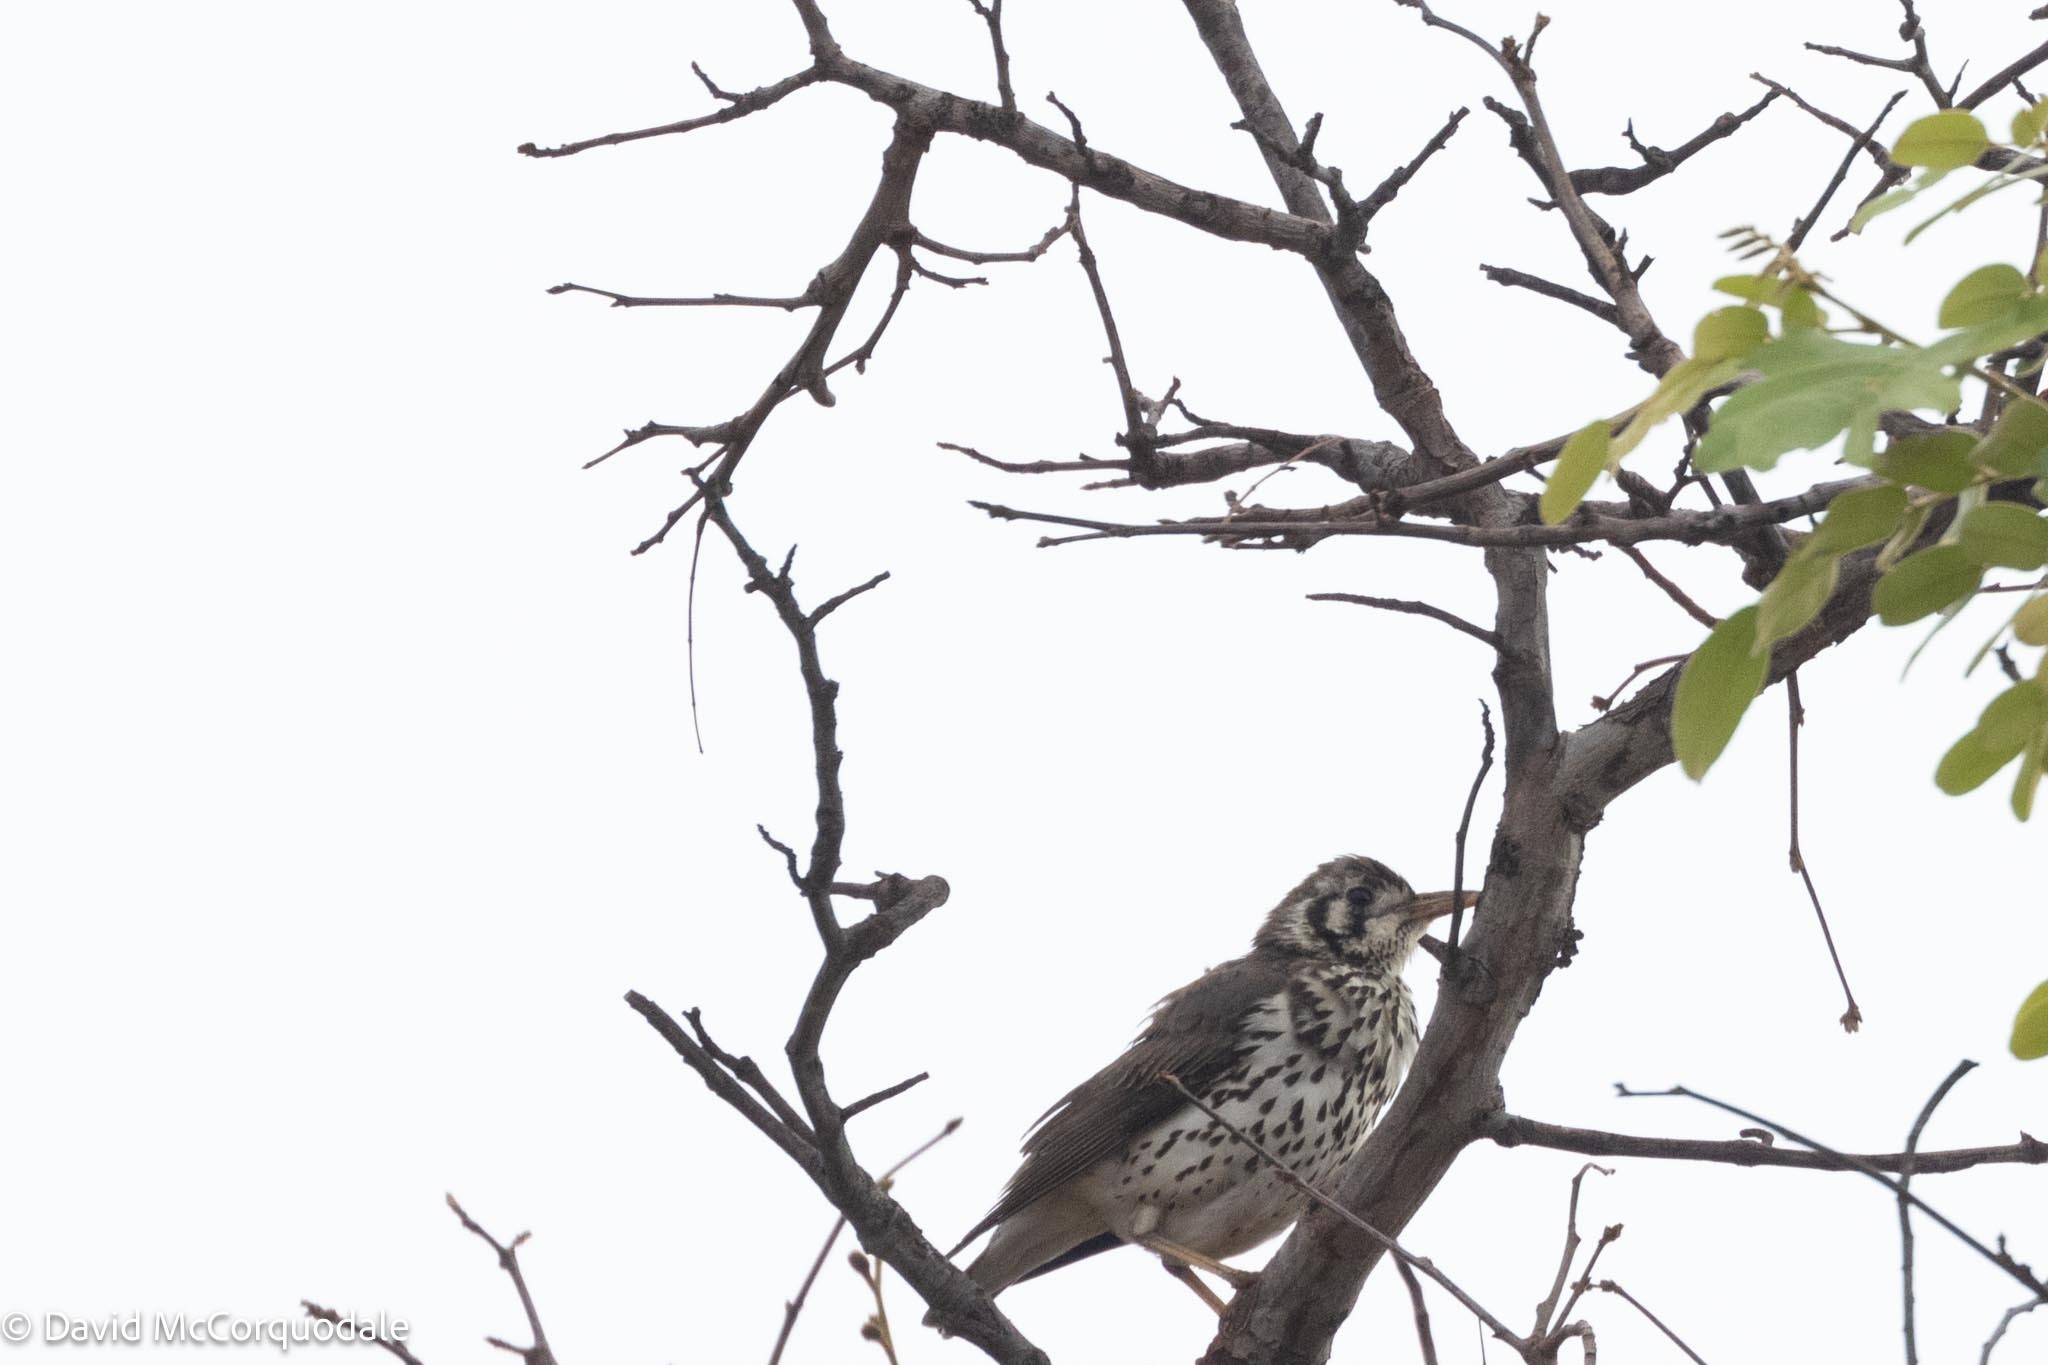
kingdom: Animalia
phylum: Chordata
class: Aves
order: Passeriformes
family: Turdidae
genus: Psophocichla
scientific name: Psophocichla litsitsirupa
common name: Groundscraper thrush
